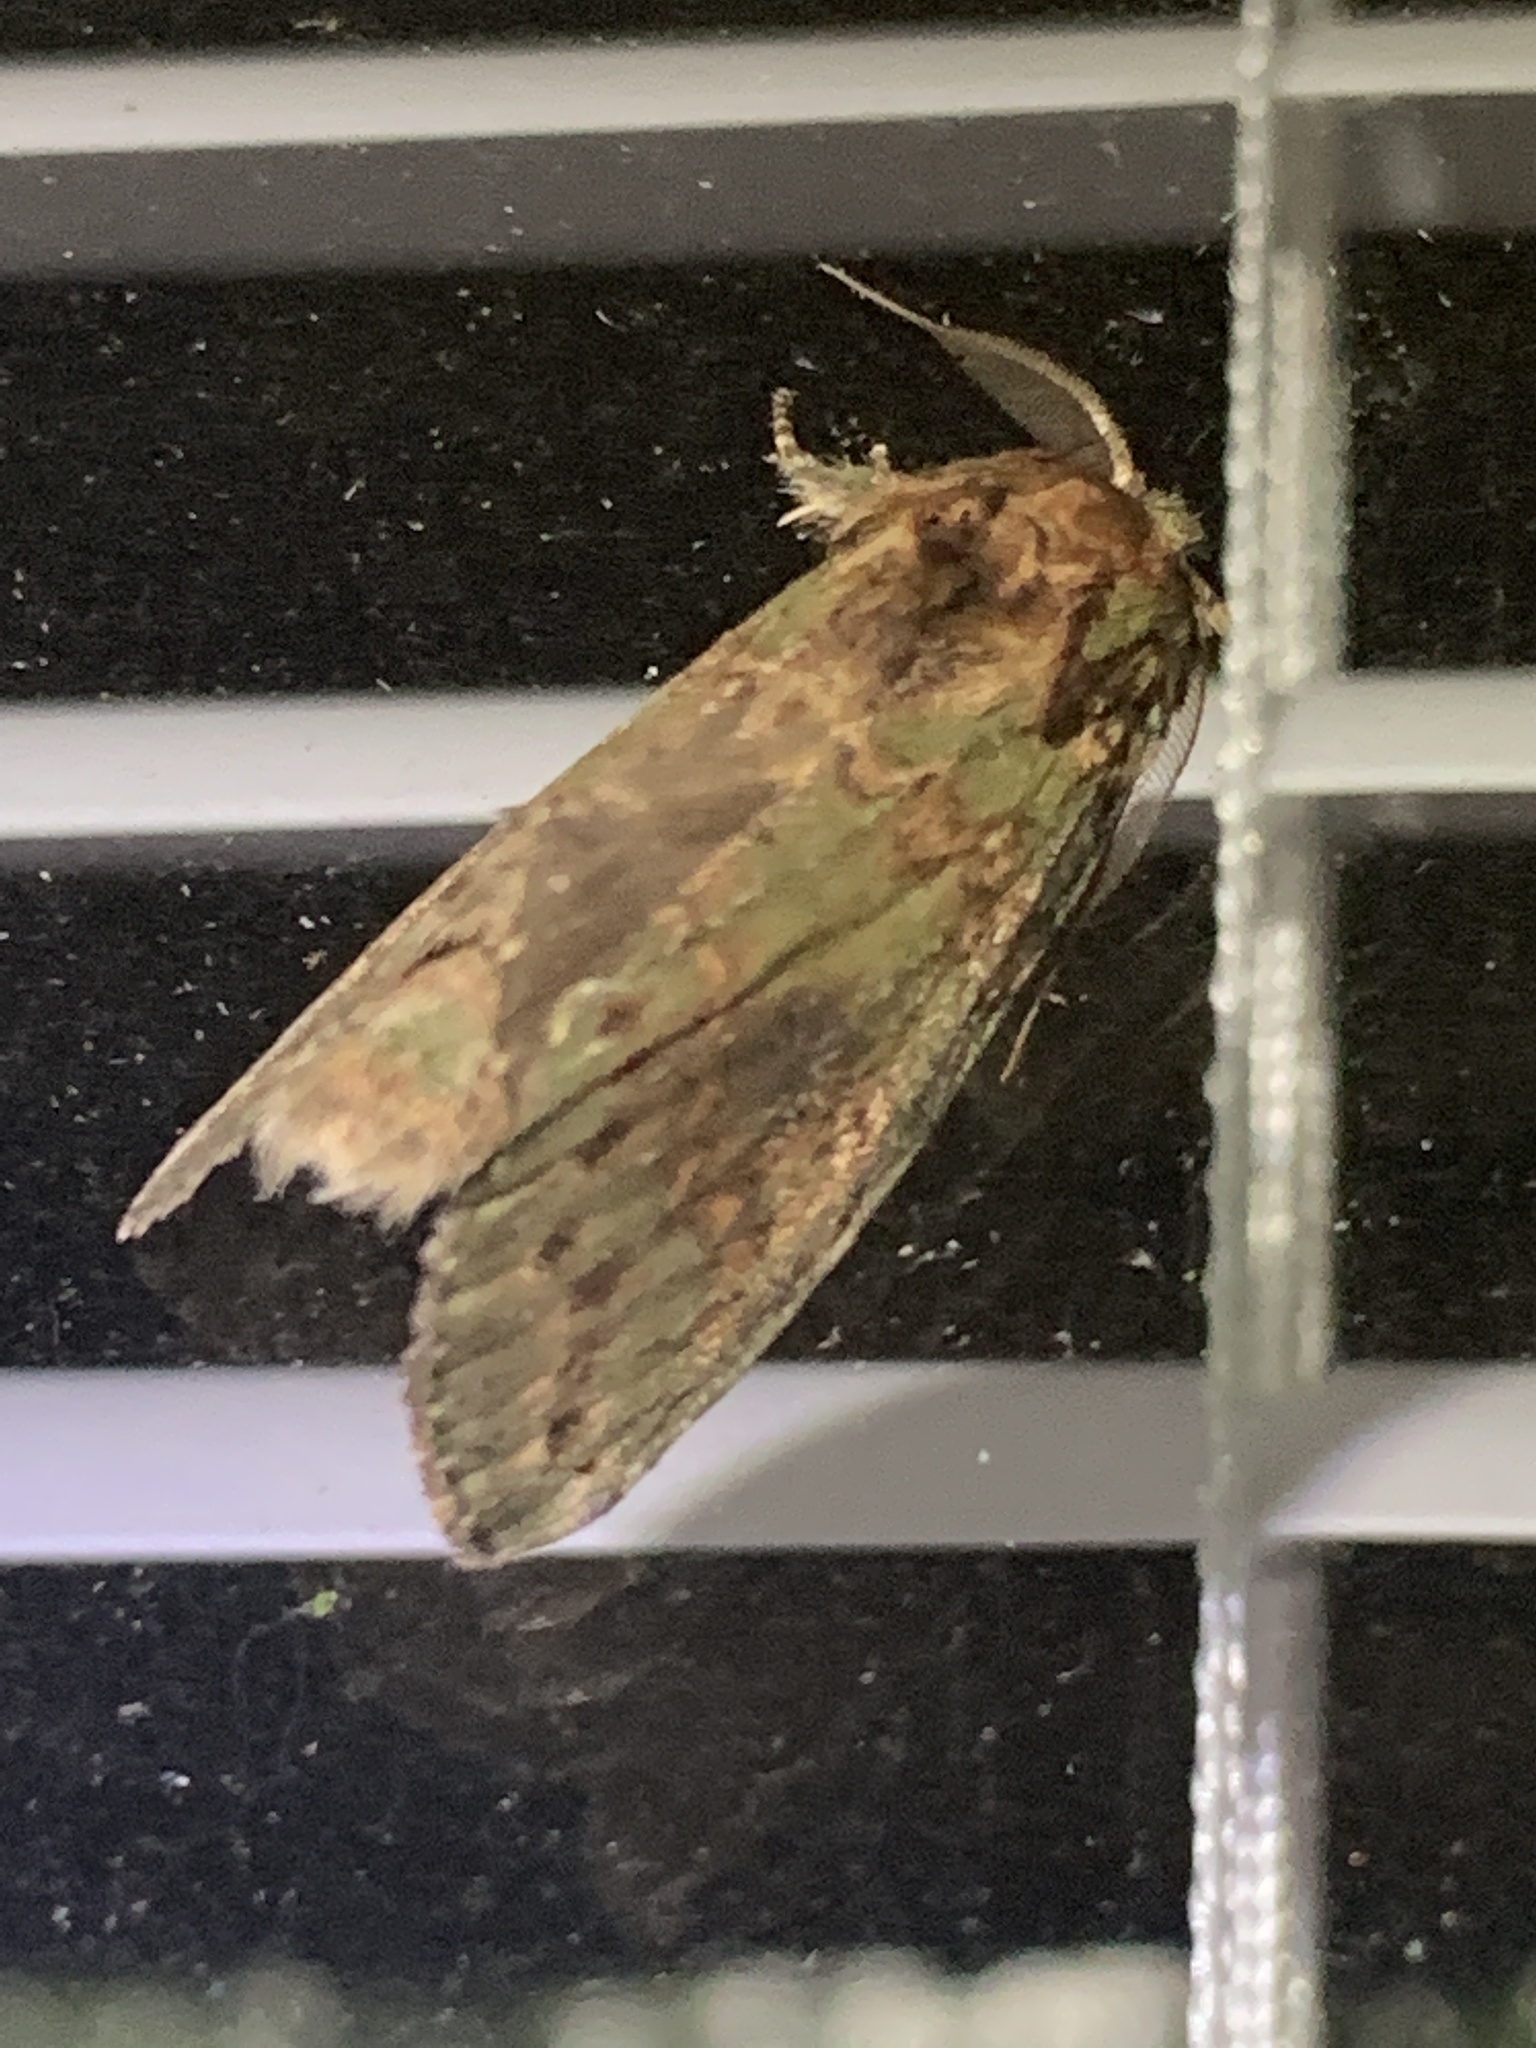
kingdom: Animalia
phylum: Arthropoda
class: Insecta
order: Lepidoptera
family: Notodontidae
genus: Disphragis
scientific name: Disphragis Cecrita biundata
